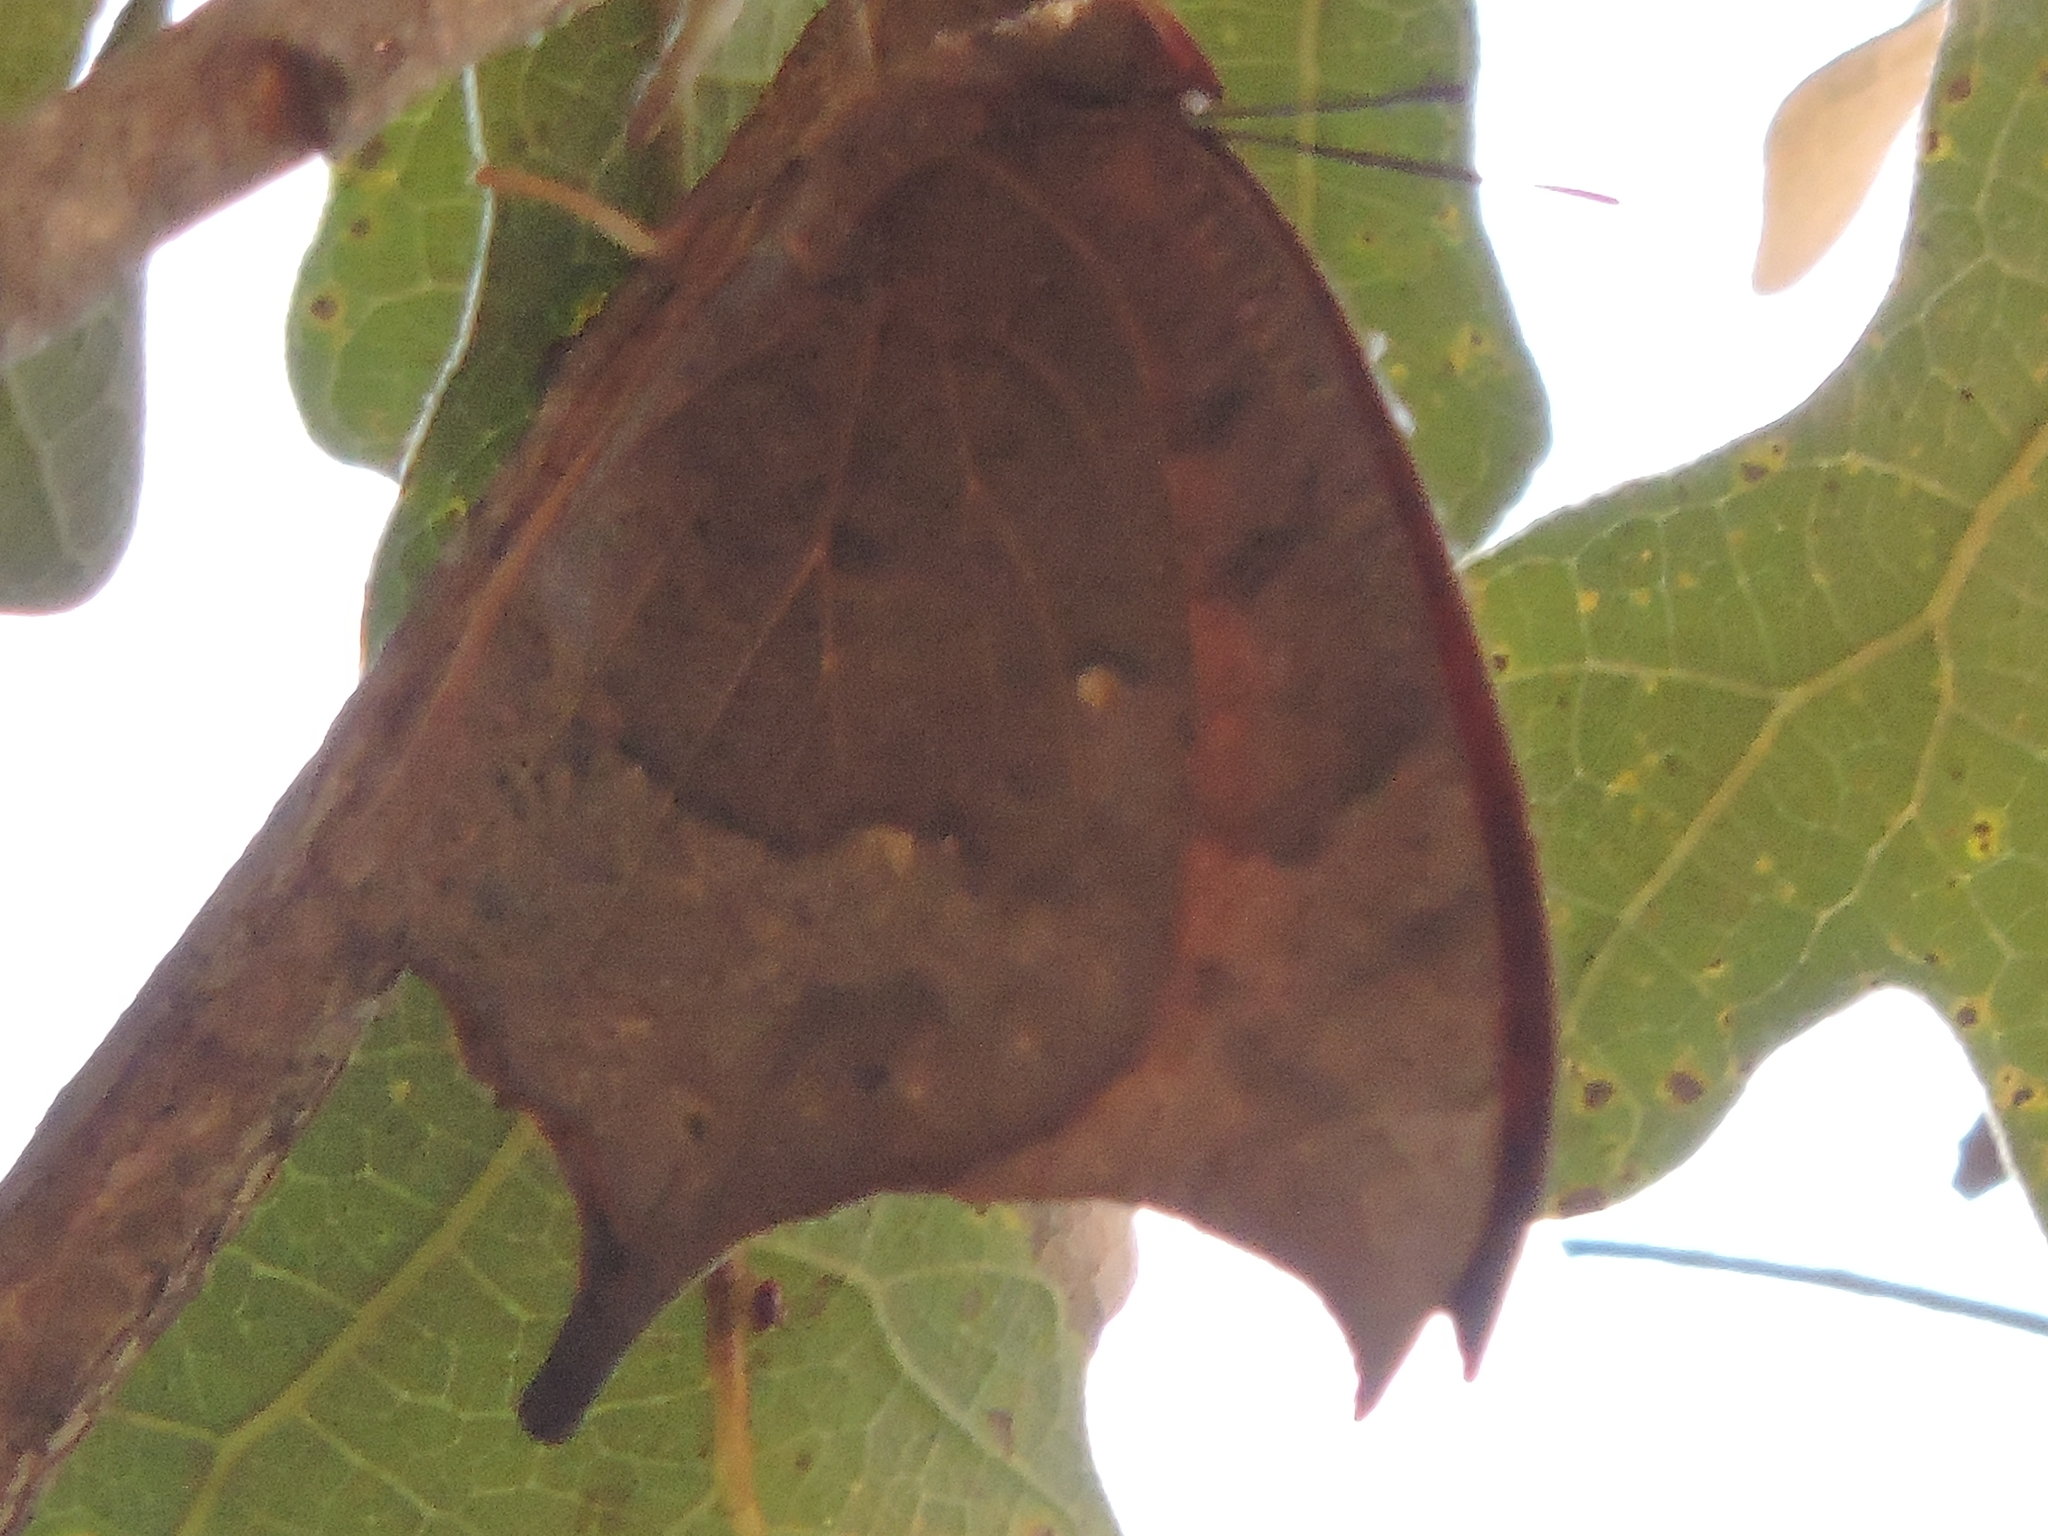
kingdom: Animalia
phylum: Arthropoda
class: Insecta
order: Lepidoptera
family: Nymphalidae
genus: Anaea
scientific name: Anaea andria
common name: Goatweed leafwing
